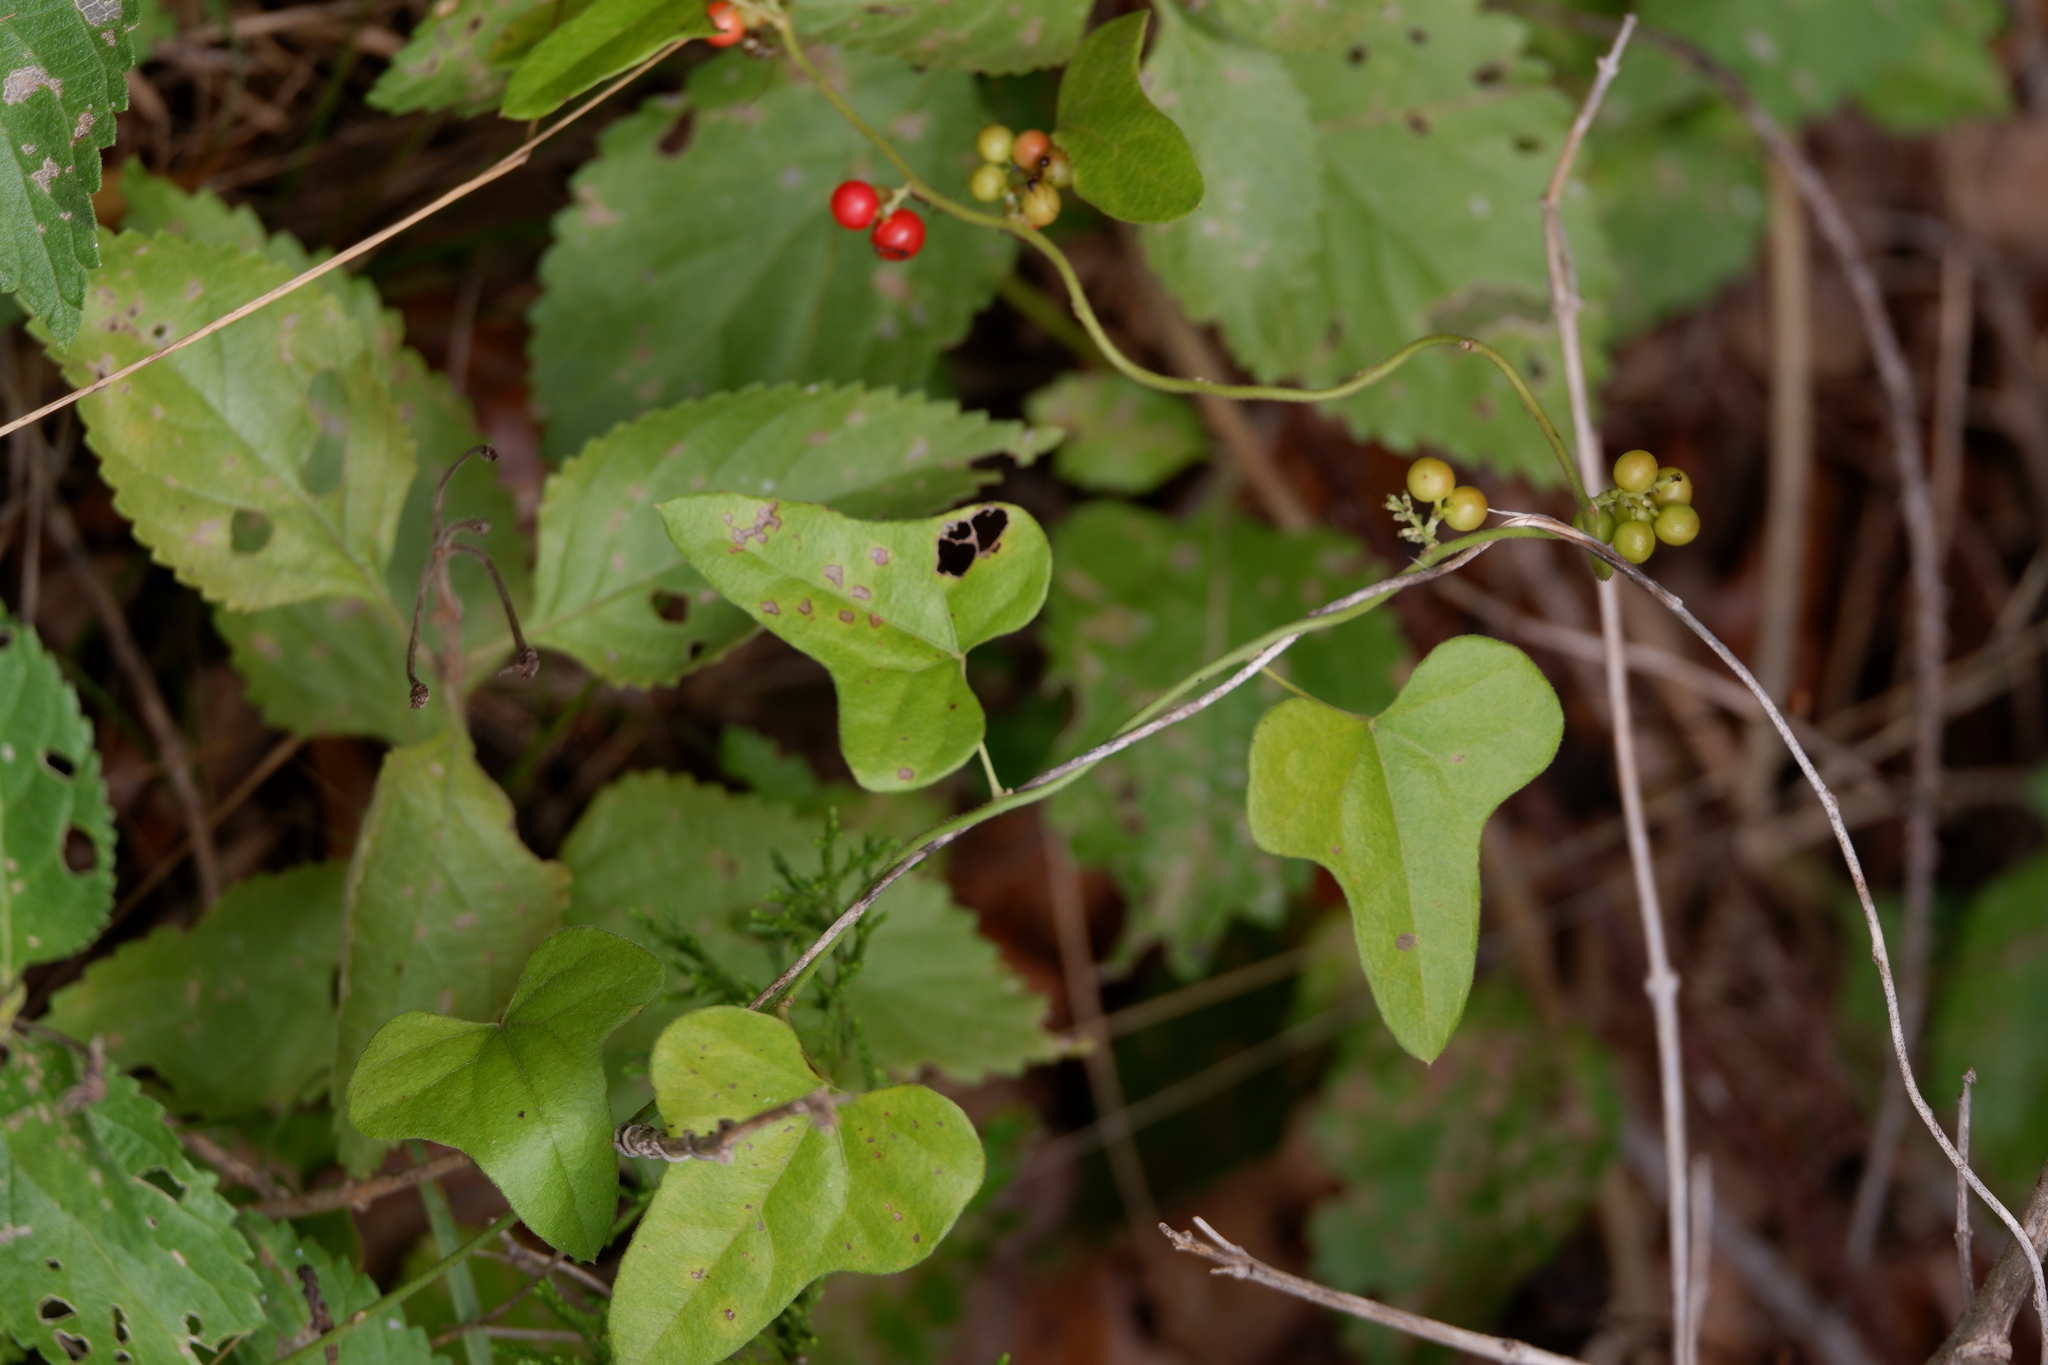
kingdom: Plantae
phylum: Tracheophyta
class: Magnoliopsida
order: Ranunculales
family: Menispermaceae
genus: Cocculus
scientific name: Cocculus carolinus
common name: Carolina moonseed
